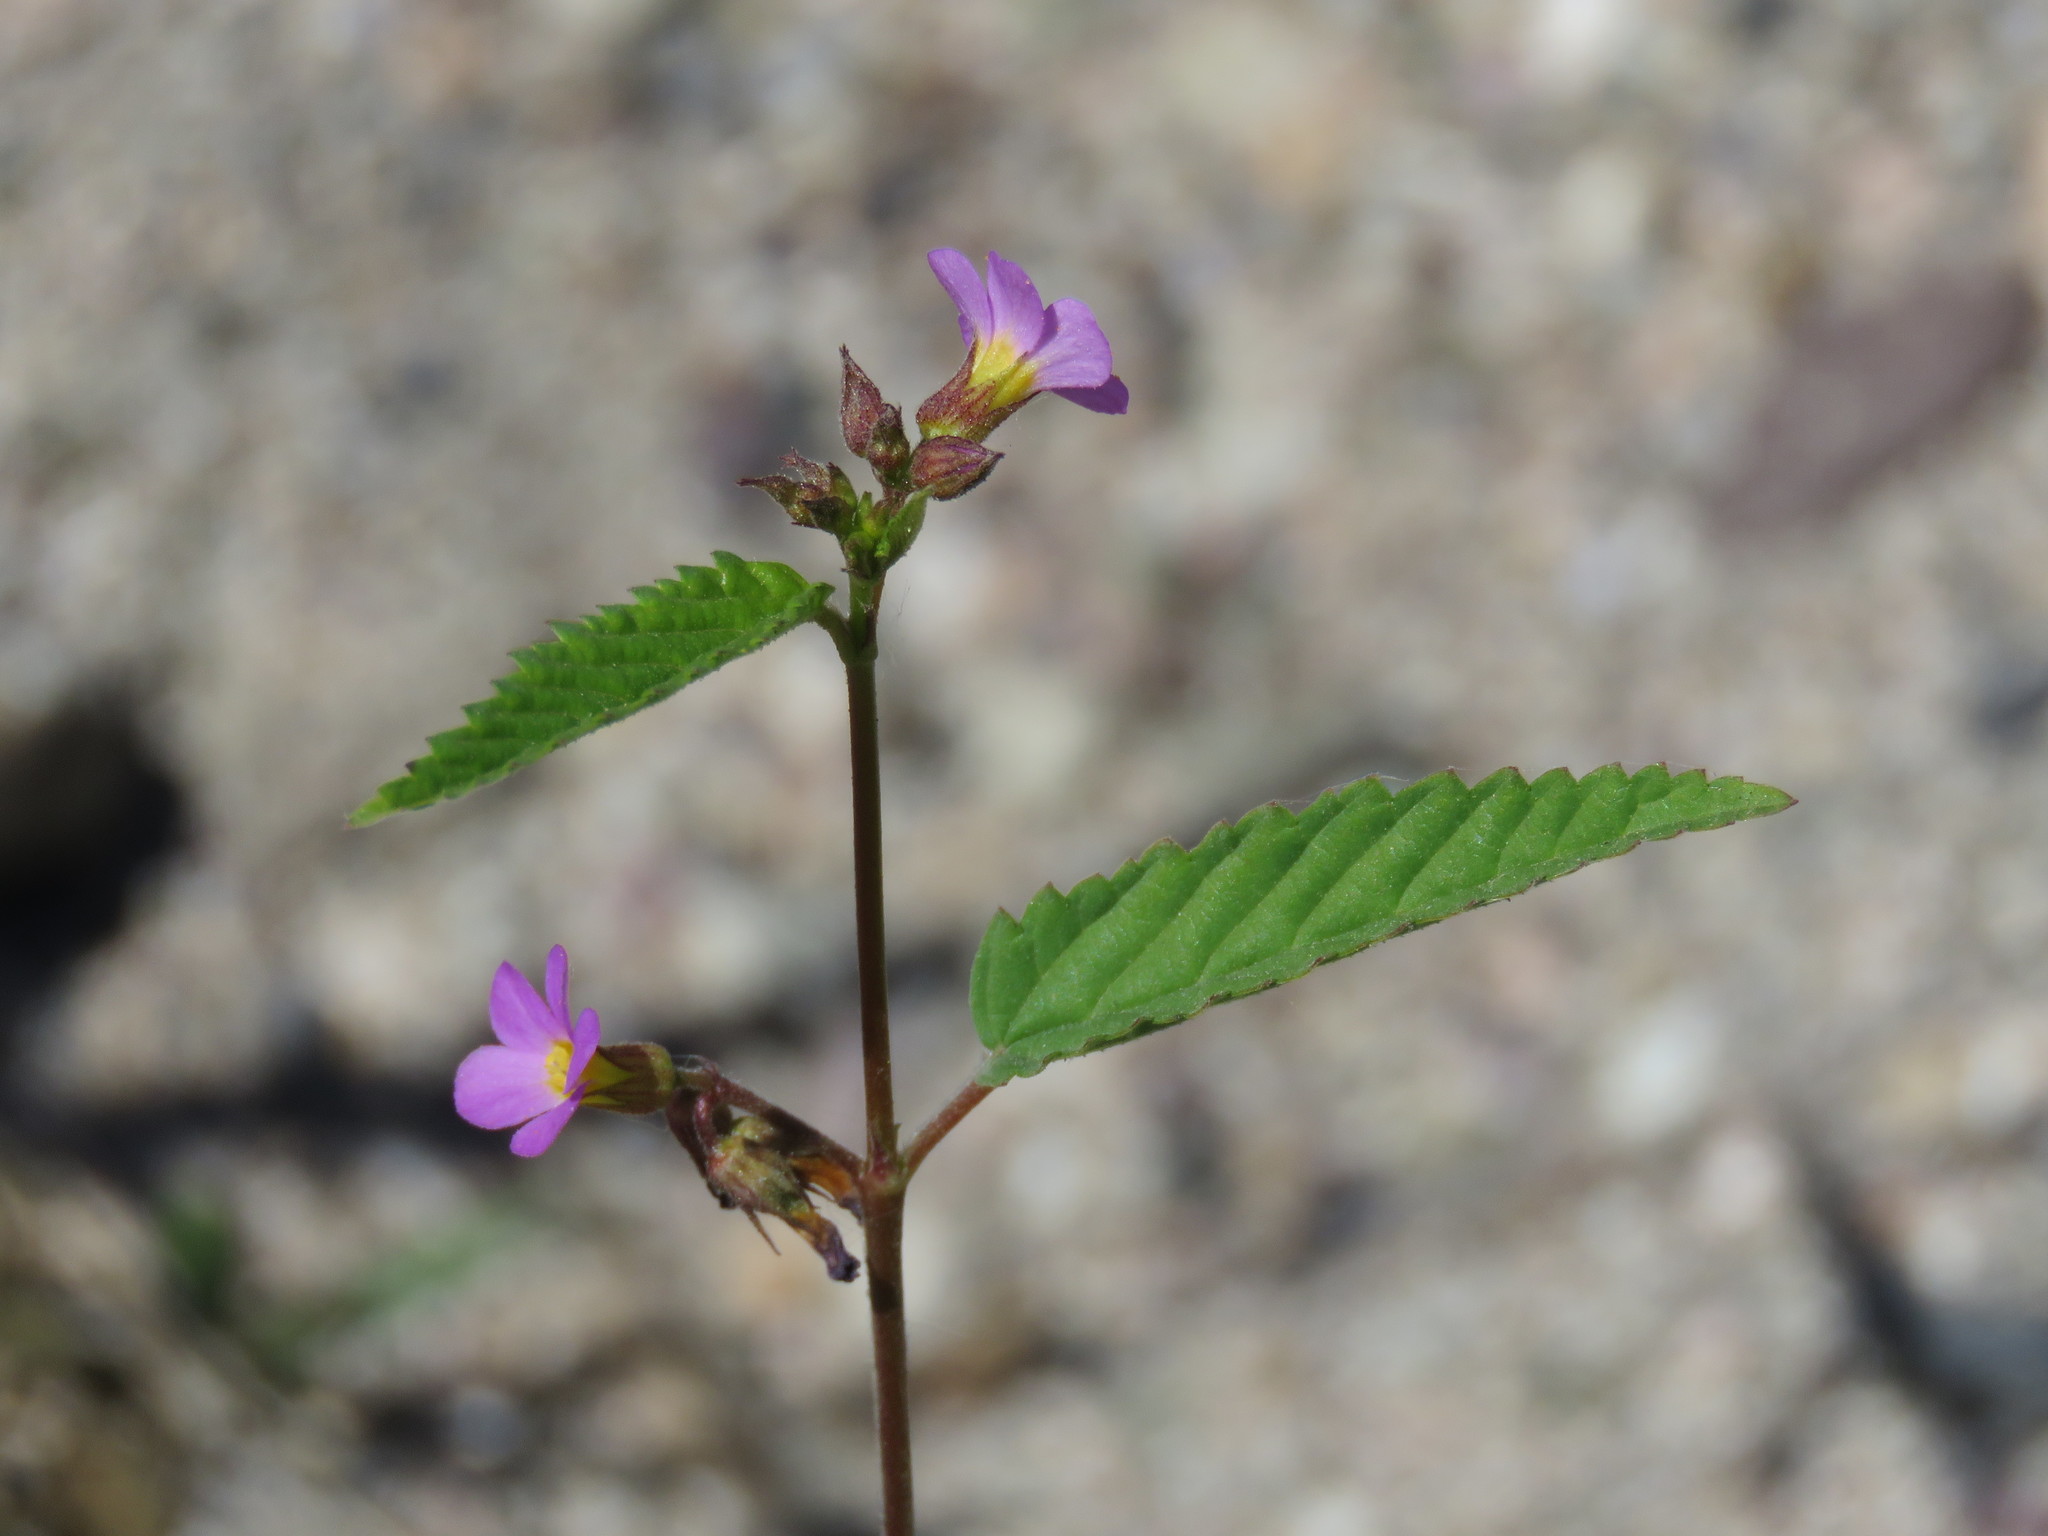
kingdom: Plantae
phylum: Tracheophyta
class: Magnoliopsida
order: Malvales
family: Malvaceae
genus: Melochia
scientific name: Melochia pyramidata
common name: Pyramidflower
